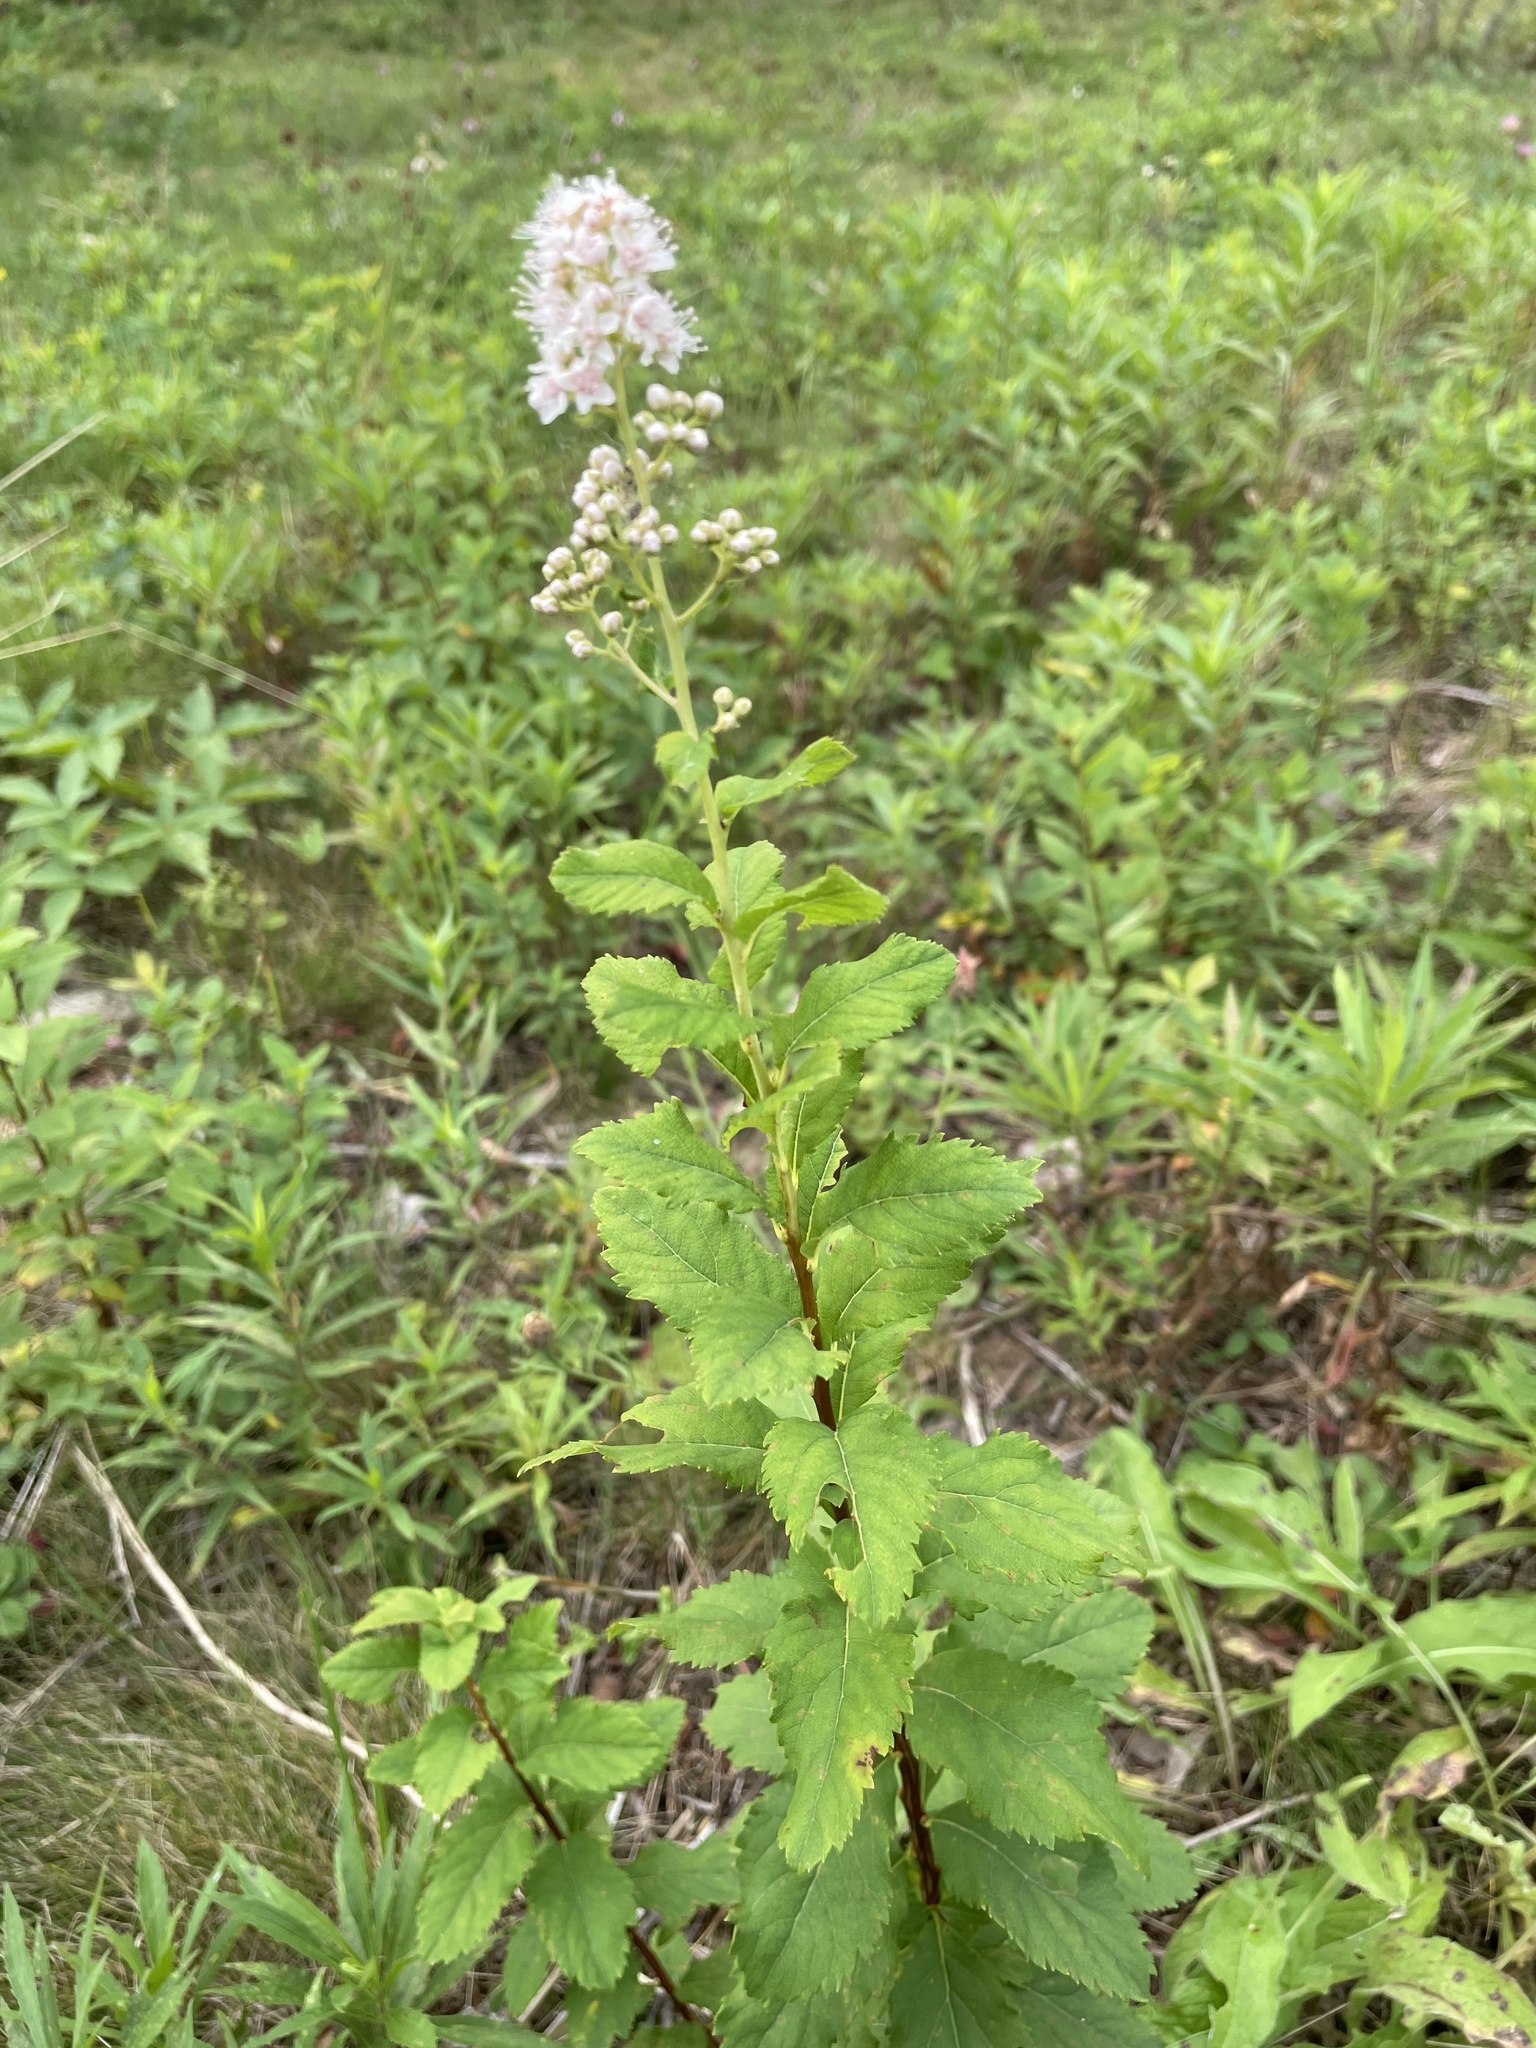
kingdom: Plantae
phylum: Tracheophyta
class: Magnoliopsida
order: Rosales
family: Rosaceae
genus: Spiraea
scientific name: Spiraea alba
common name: Pale bridewort
